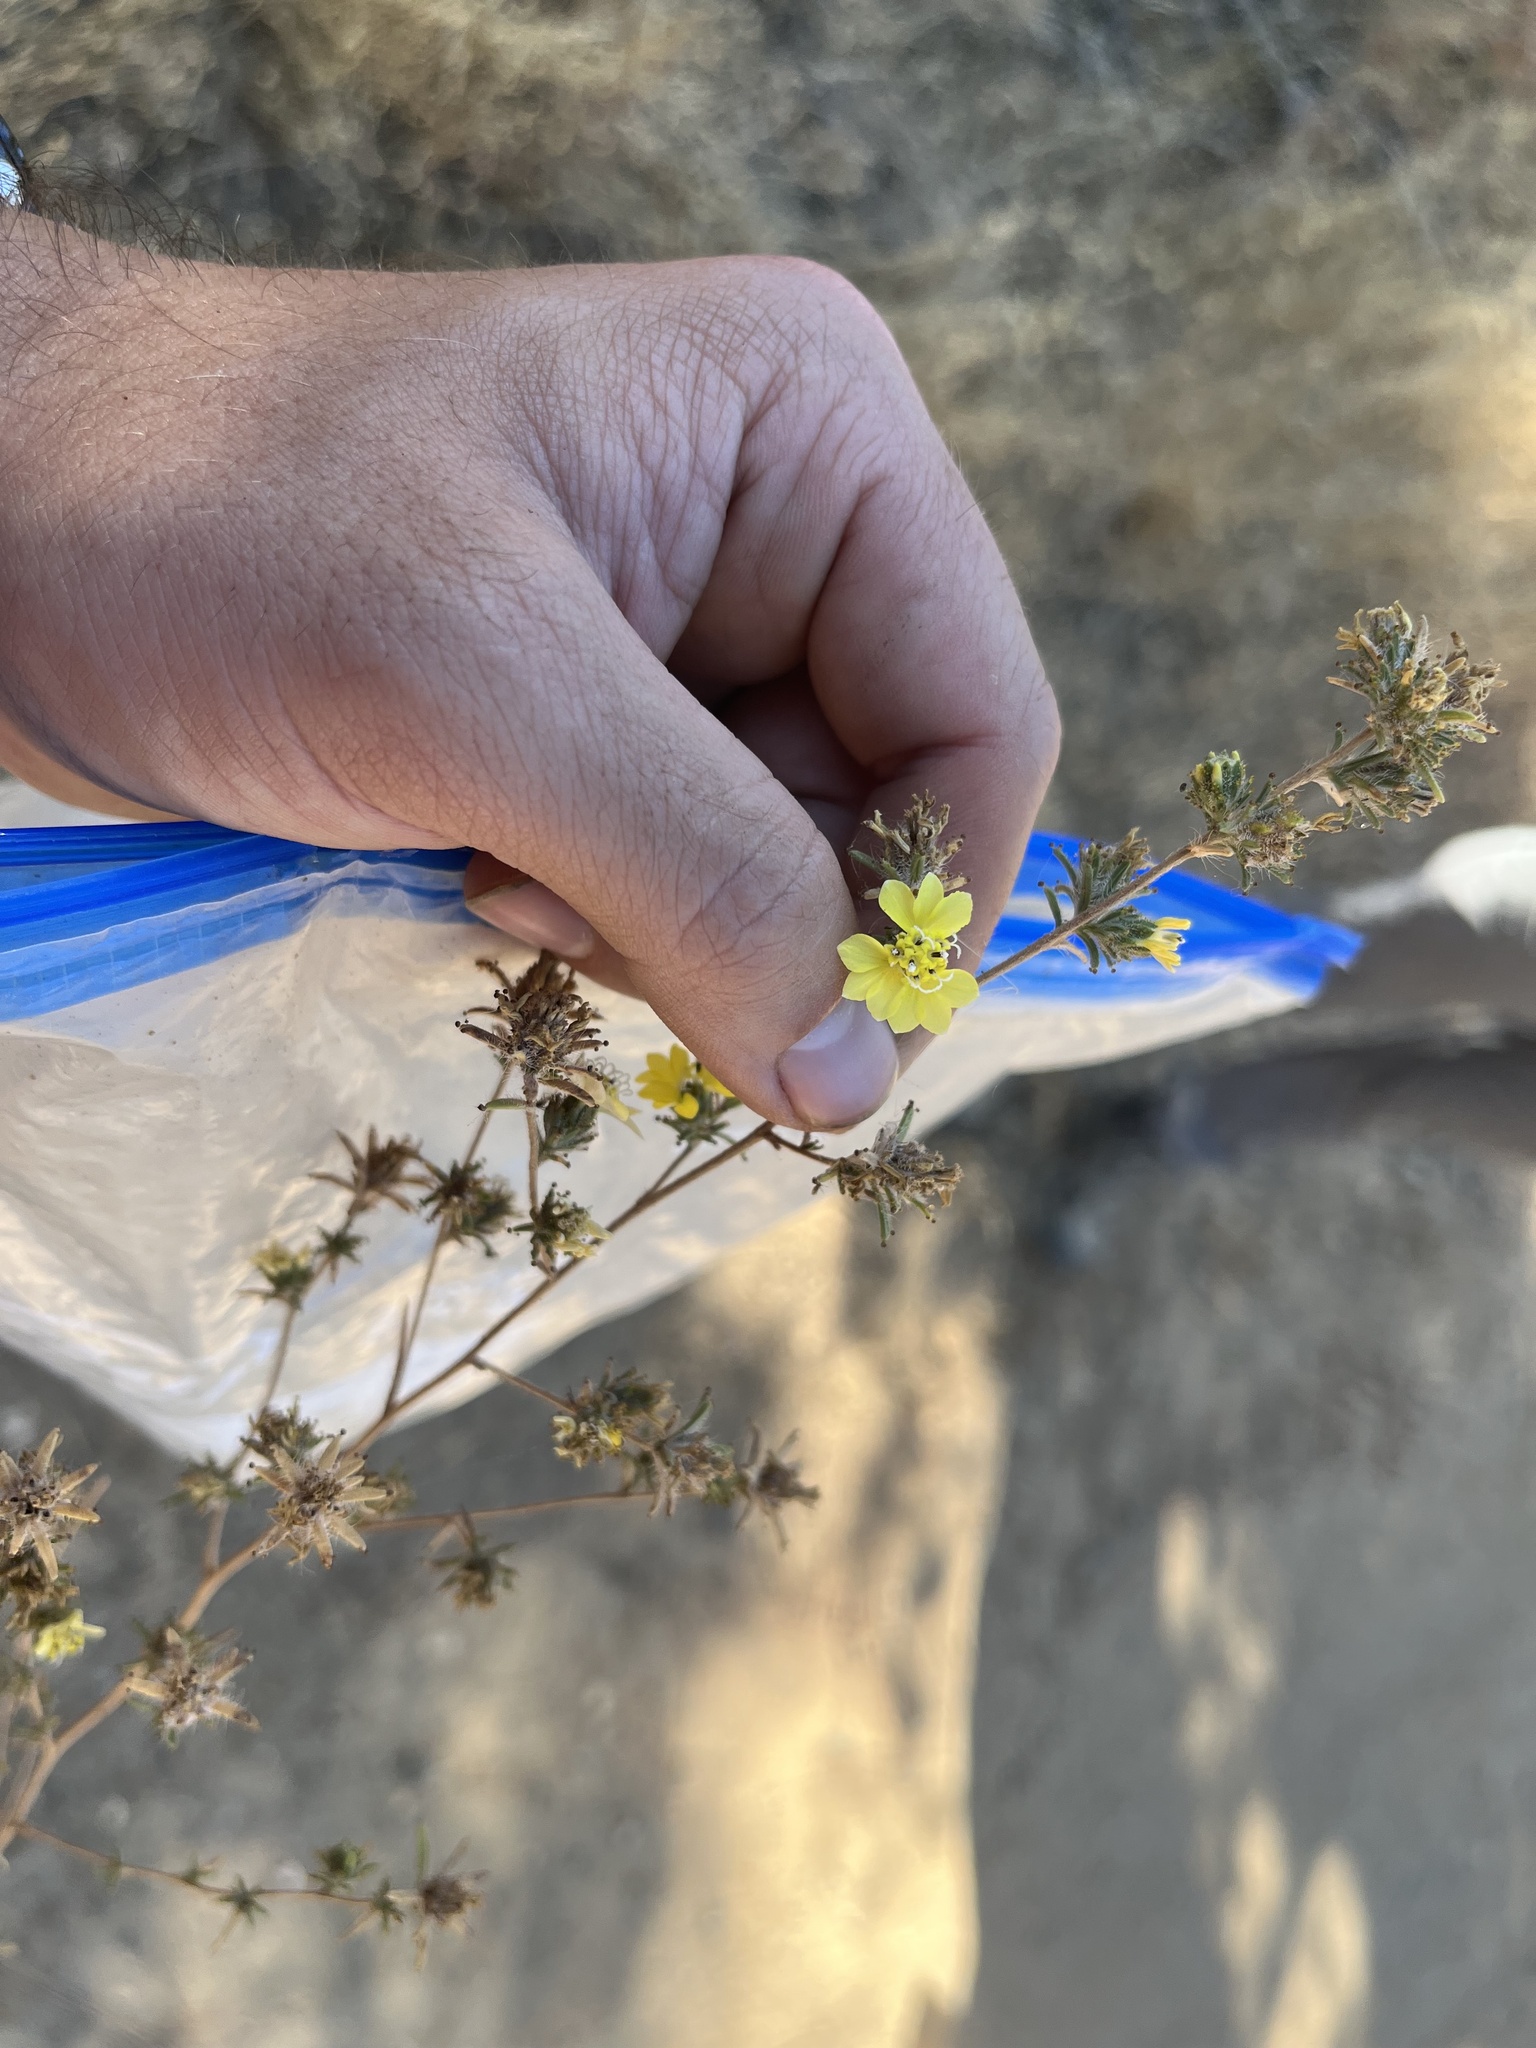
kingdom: Plantae
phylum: Tracheophyta
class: Magnoliopsida
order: Asterales
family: Asteraceae
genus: Calycadenia
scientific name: Calycadenia fremontii
